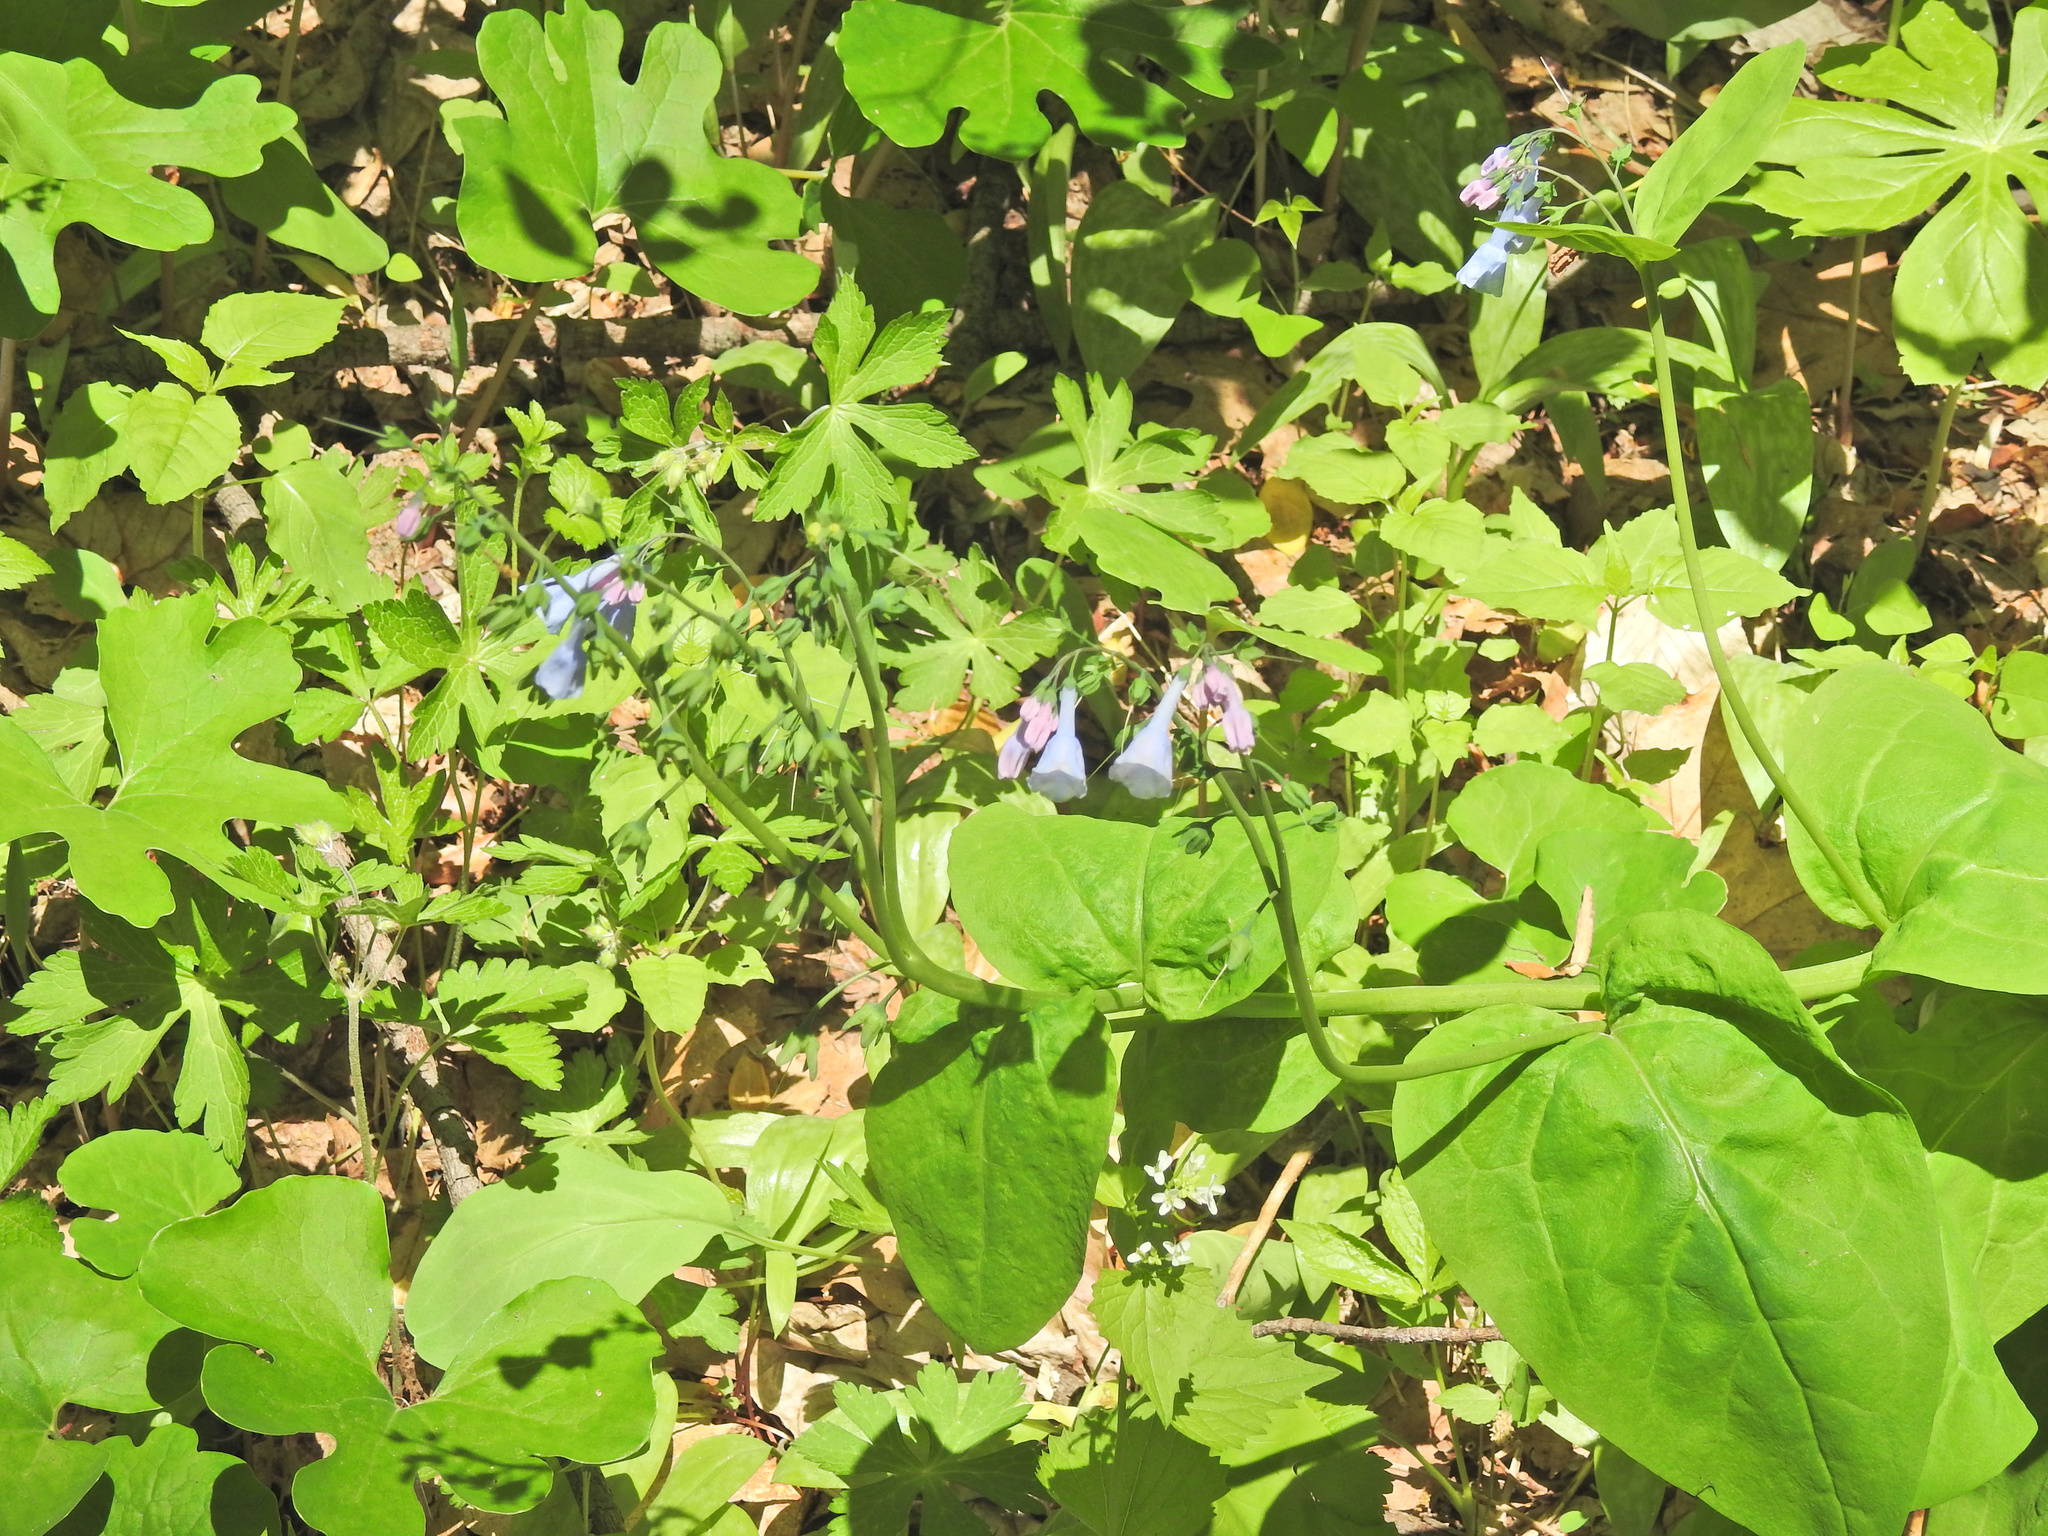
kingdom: Plantae
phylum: Tracheophyta
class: Magnoliopsida
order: Boraginales
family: Boraginaceae
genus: Mertensia
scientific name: Mertensia virginica
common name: Virginia bluebells
